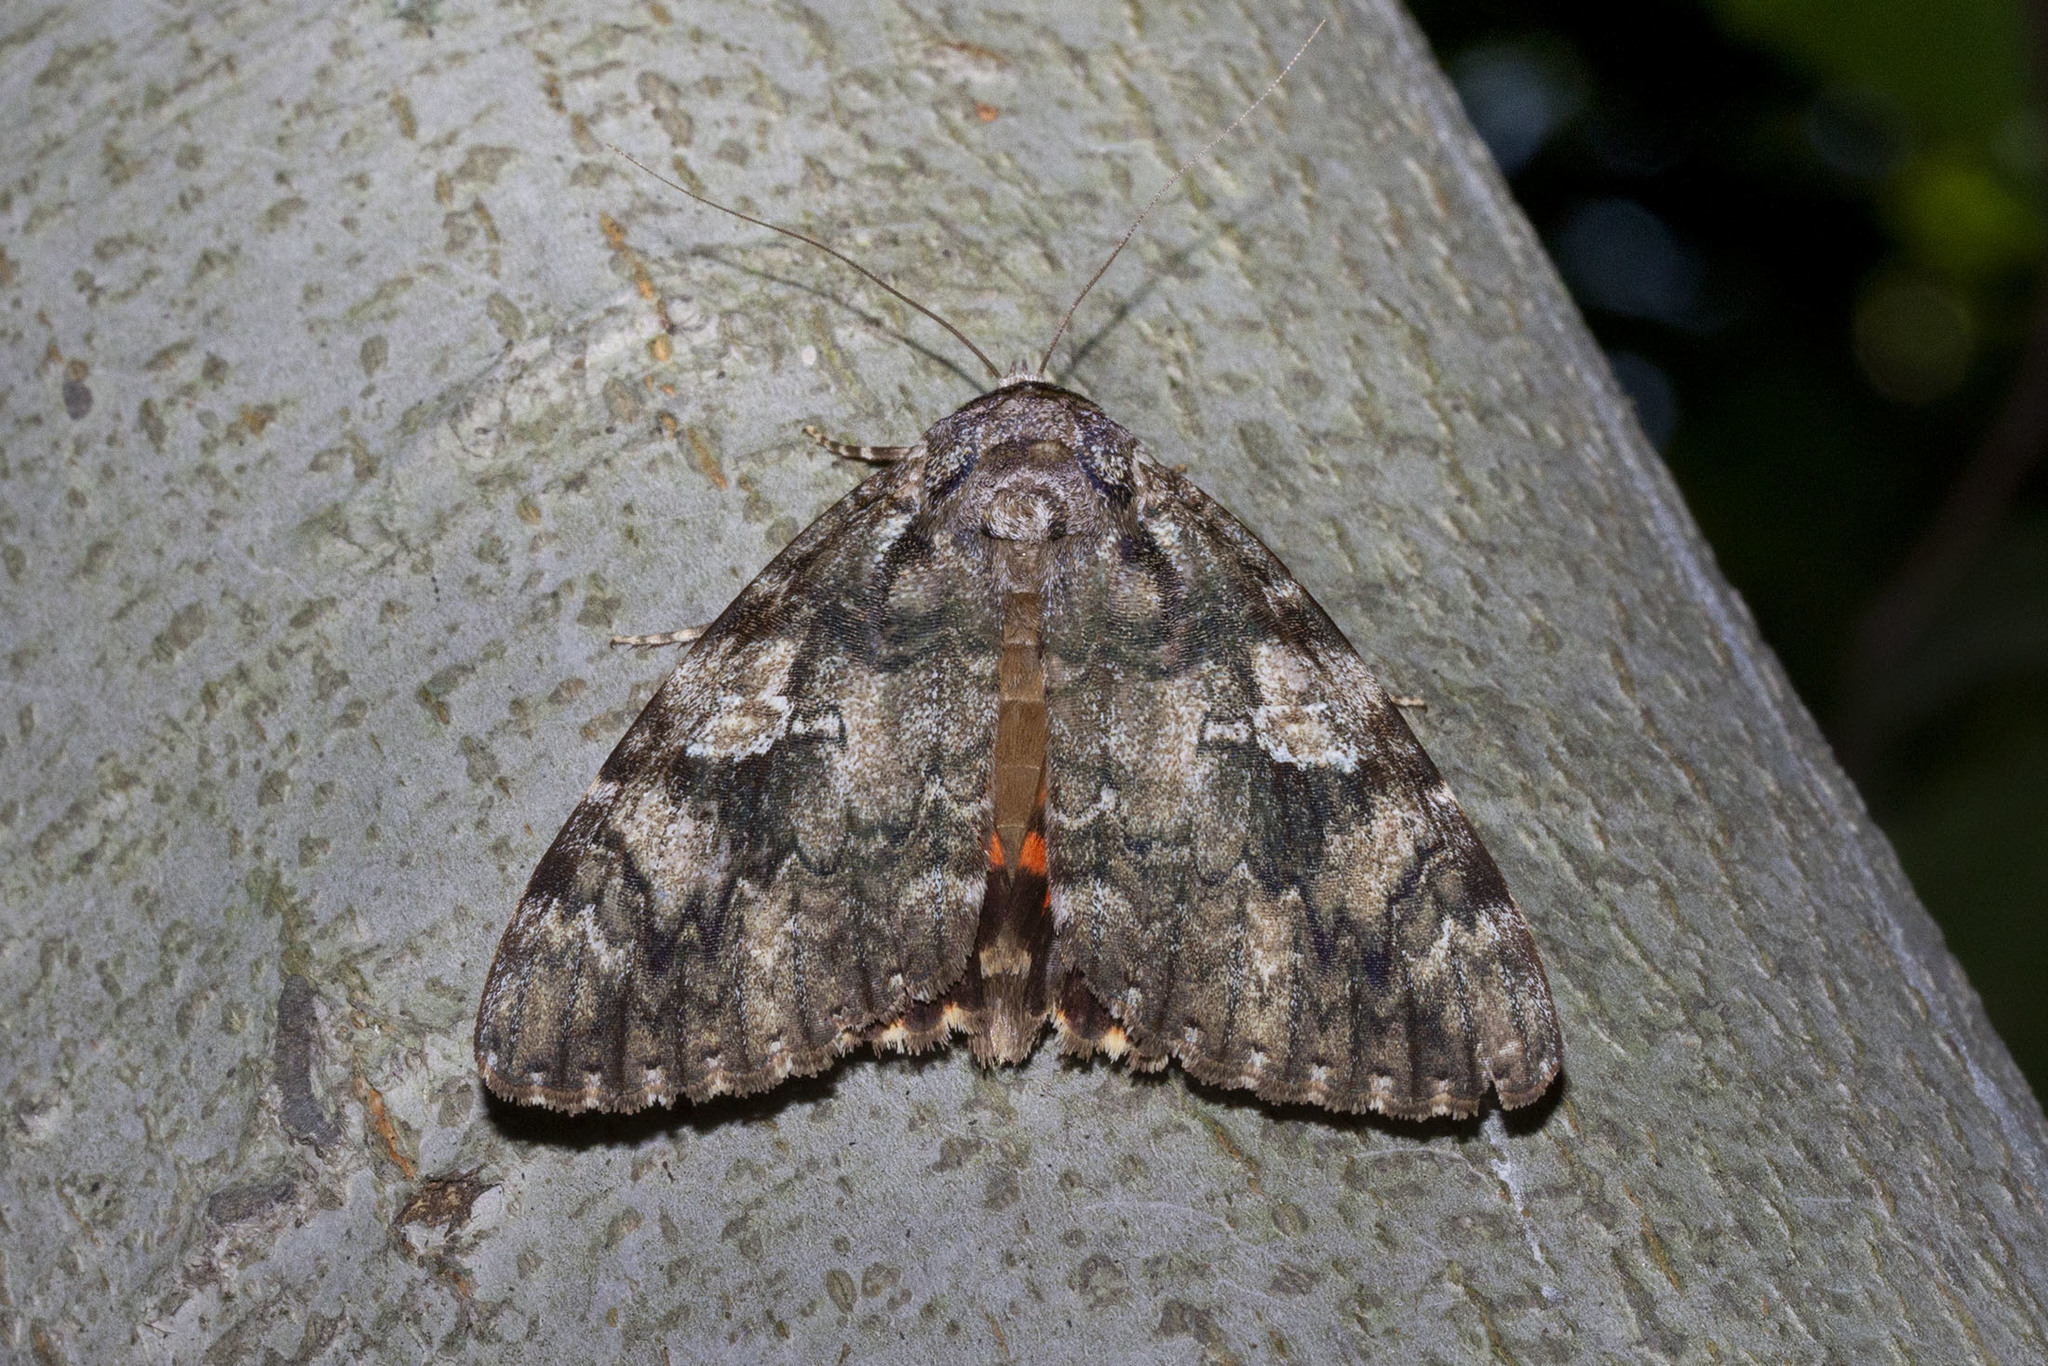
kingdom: Animalia
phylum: Arthropoda
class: Insecta
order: Lepidoptera
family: Erebidae
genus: Catocala
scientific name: Catocala ilia
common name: Ilia underwing
